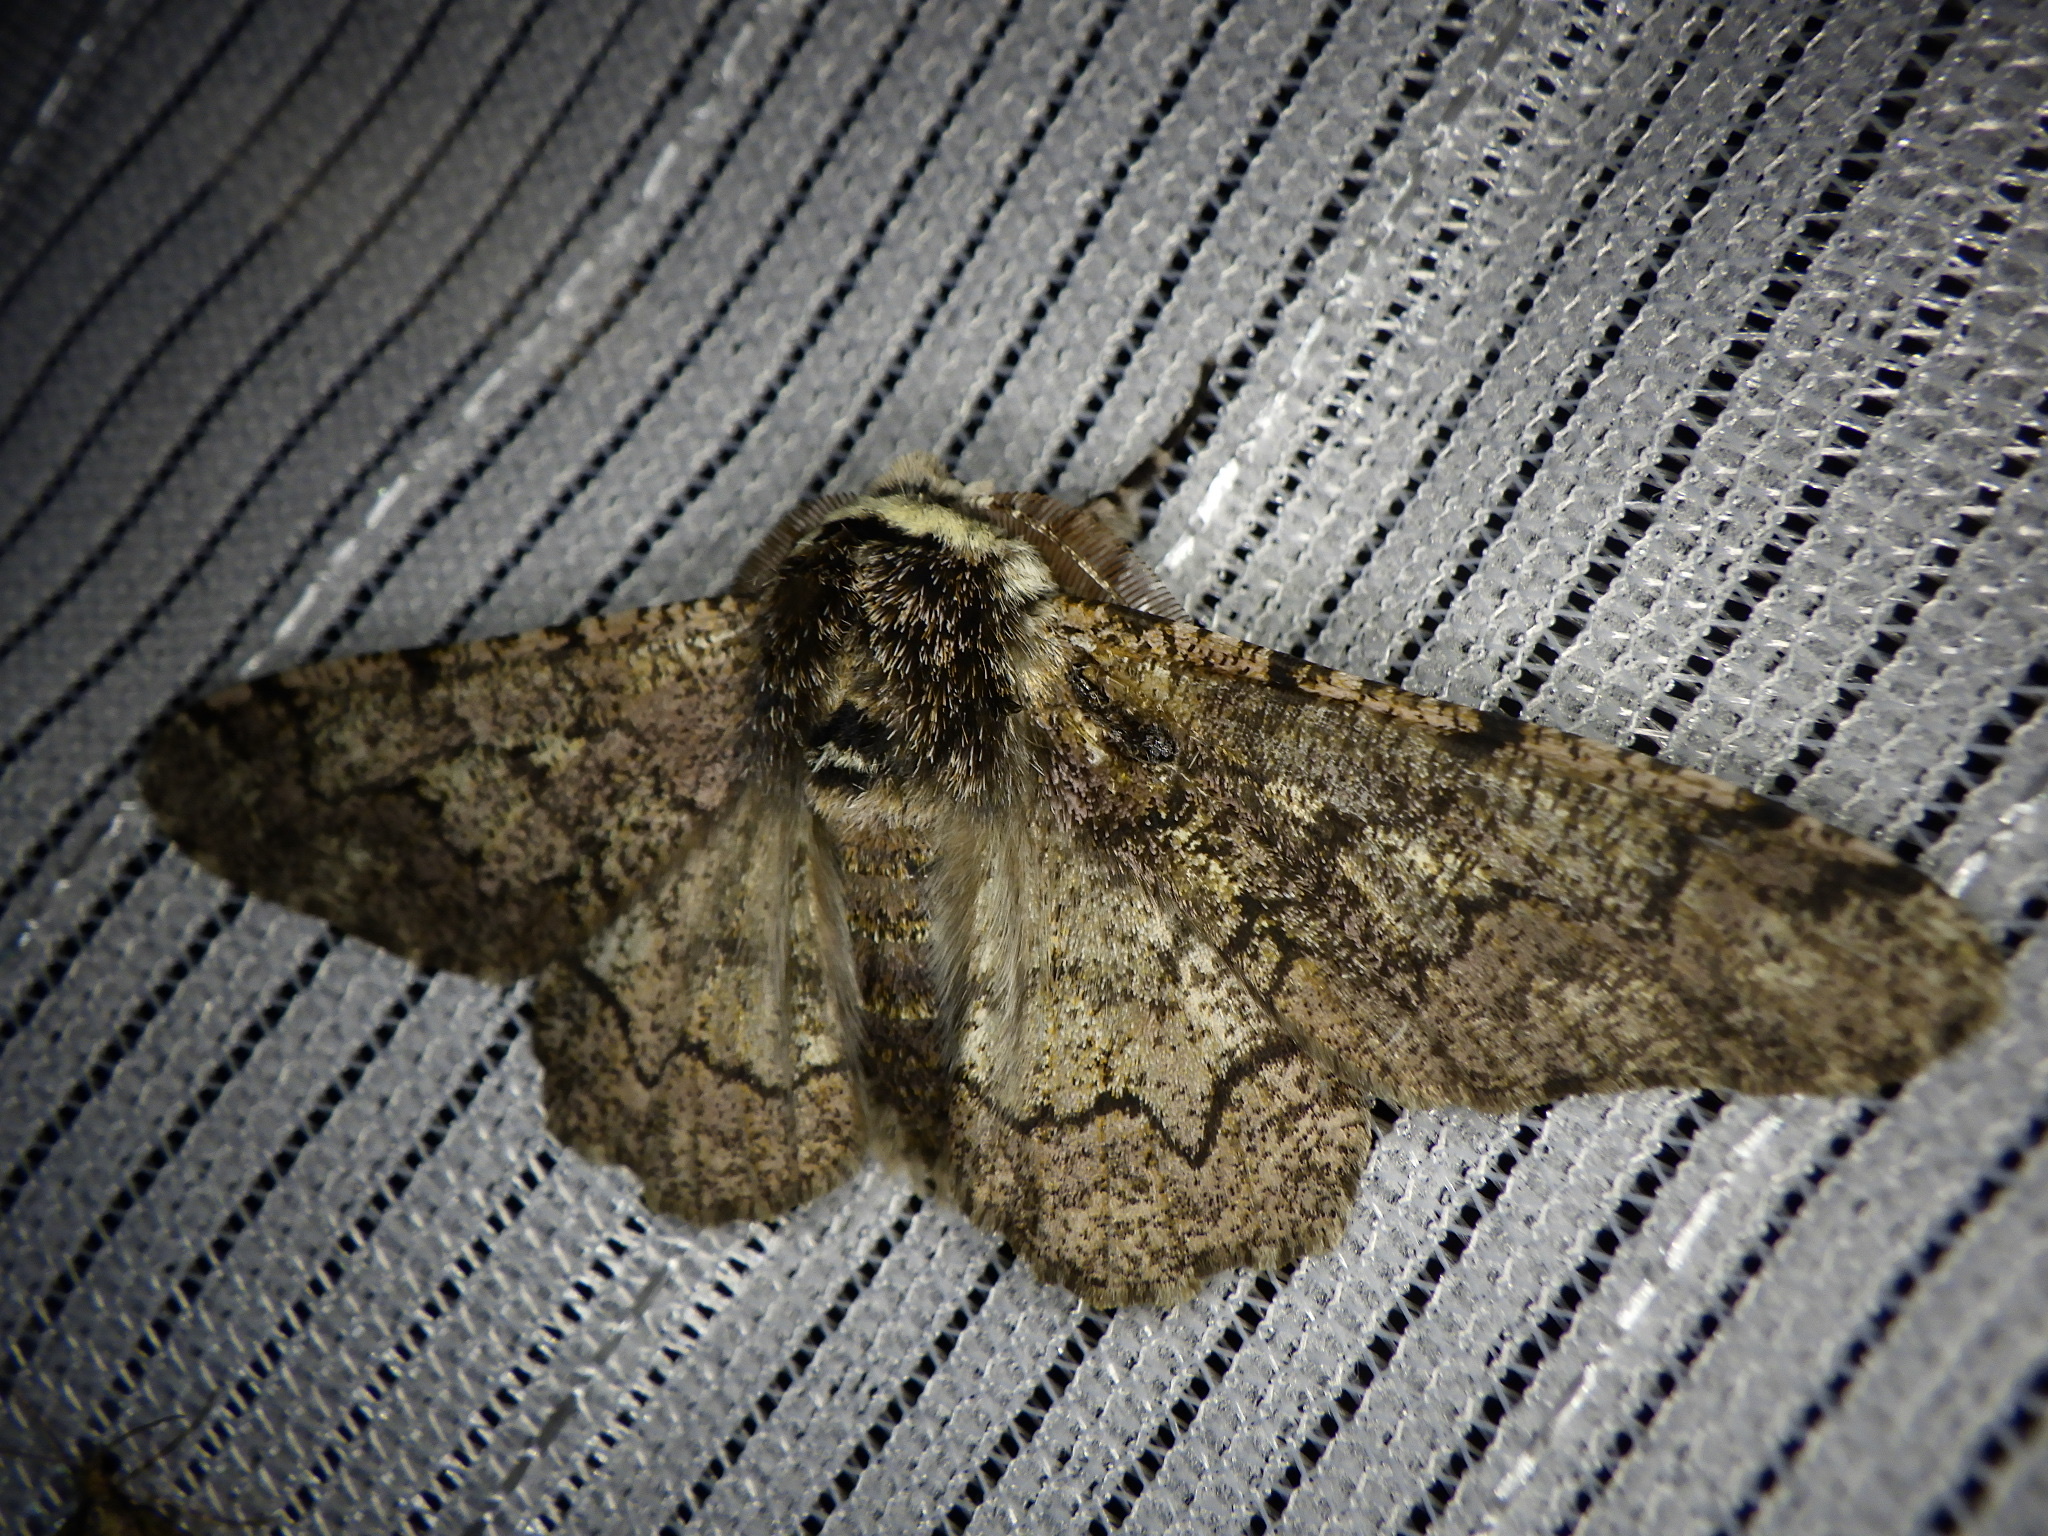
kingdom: Animalia
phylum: Arthropoda
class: Insecta
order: Lepidoptera
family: Geometridae
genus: Biston
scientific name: Biston robustum
